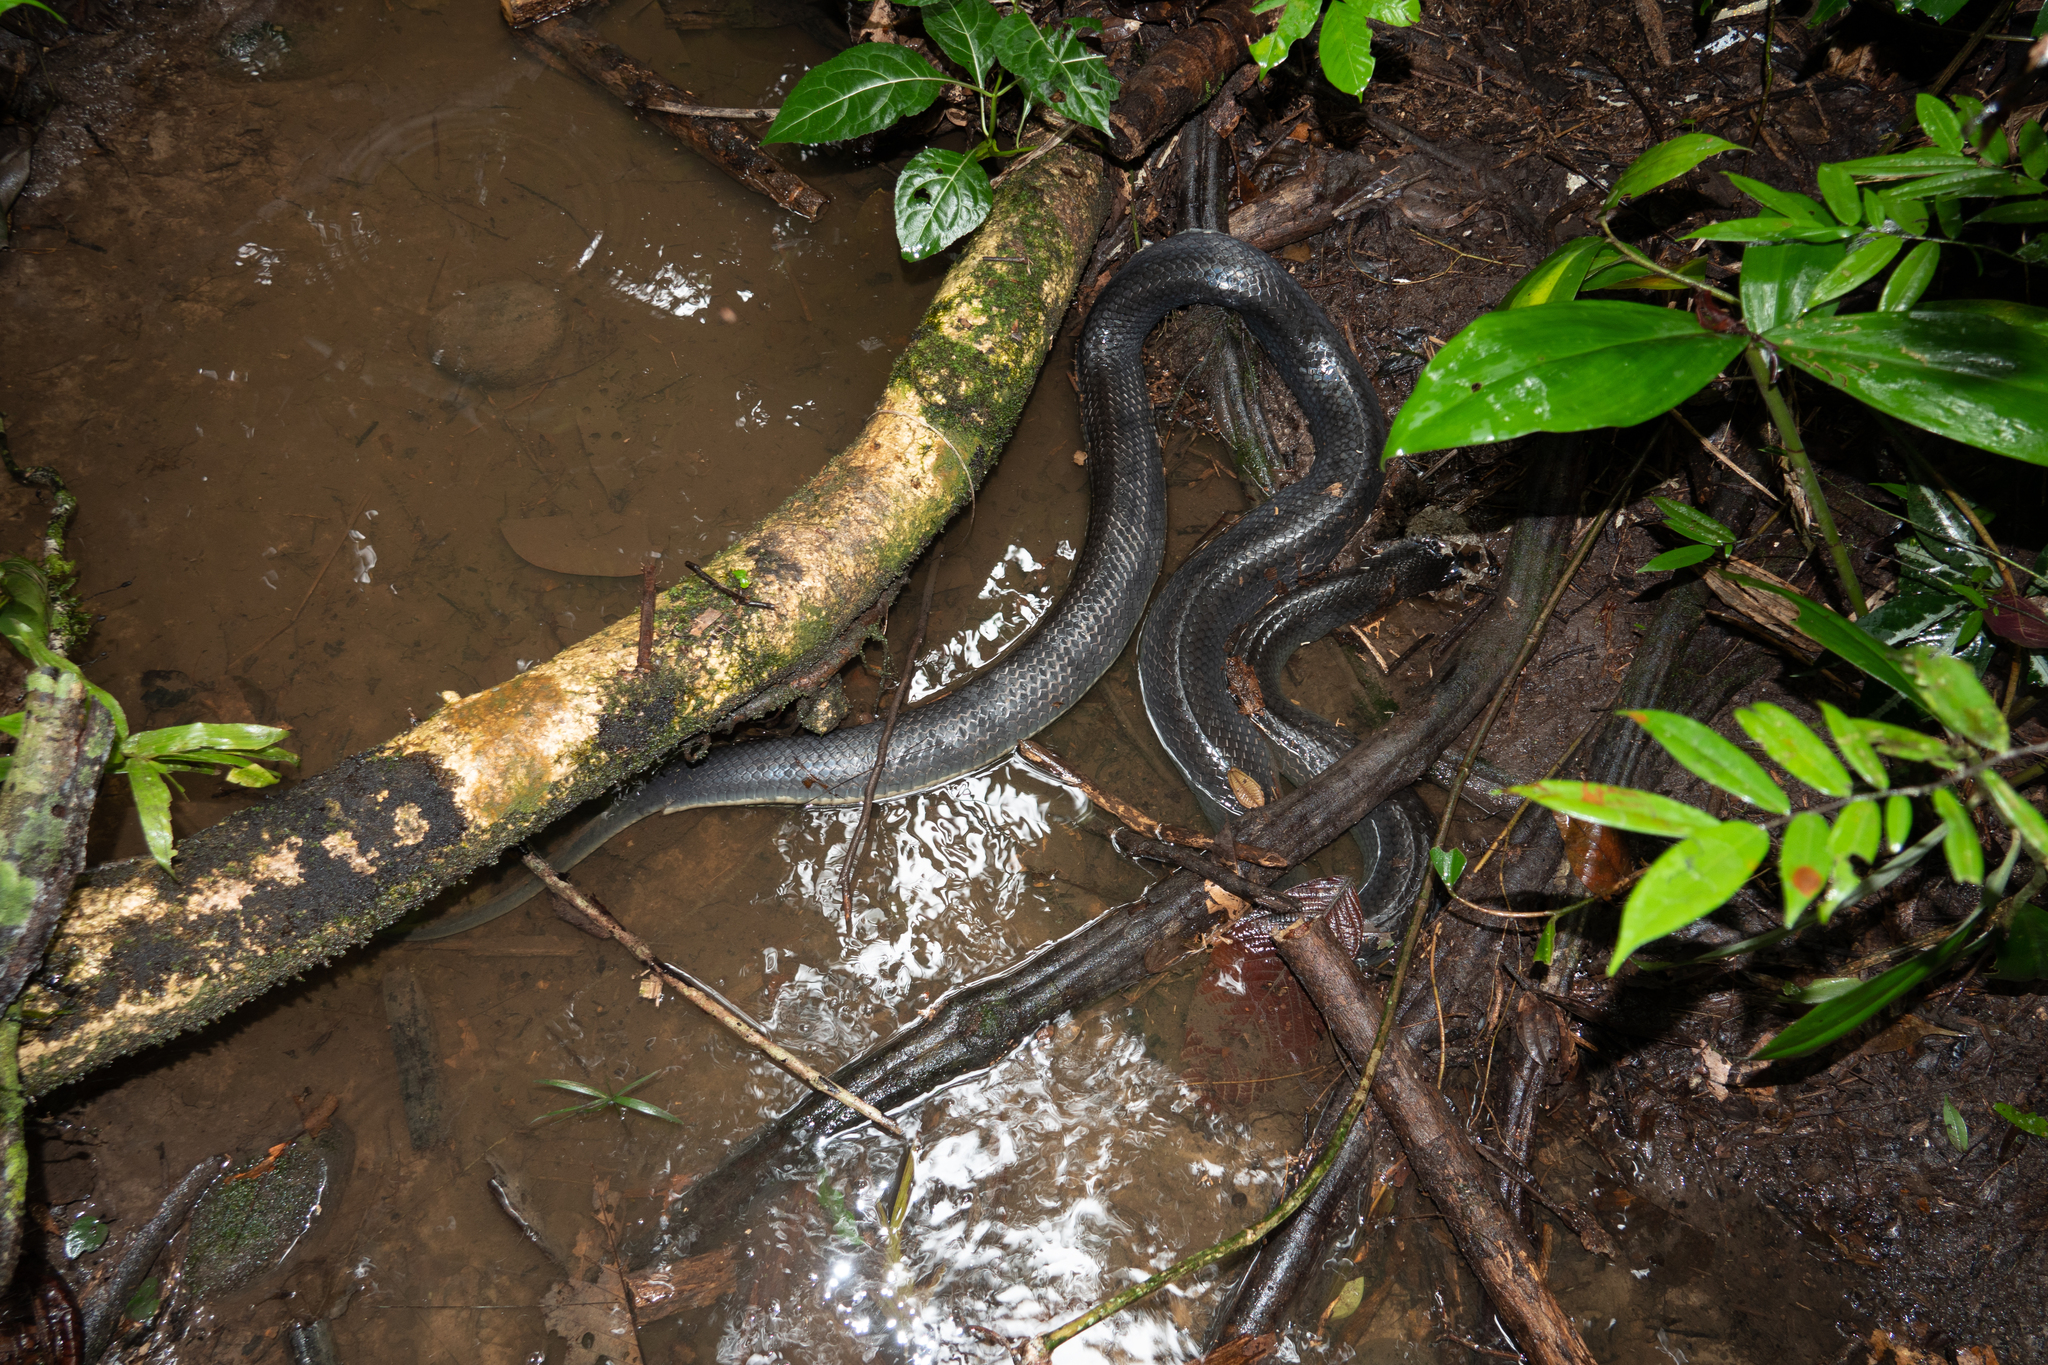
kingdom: Animalia
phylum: Chordata
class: Squamata
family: Colubridae
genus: Clelia
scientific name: Clelia clelia
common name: Mussurana
